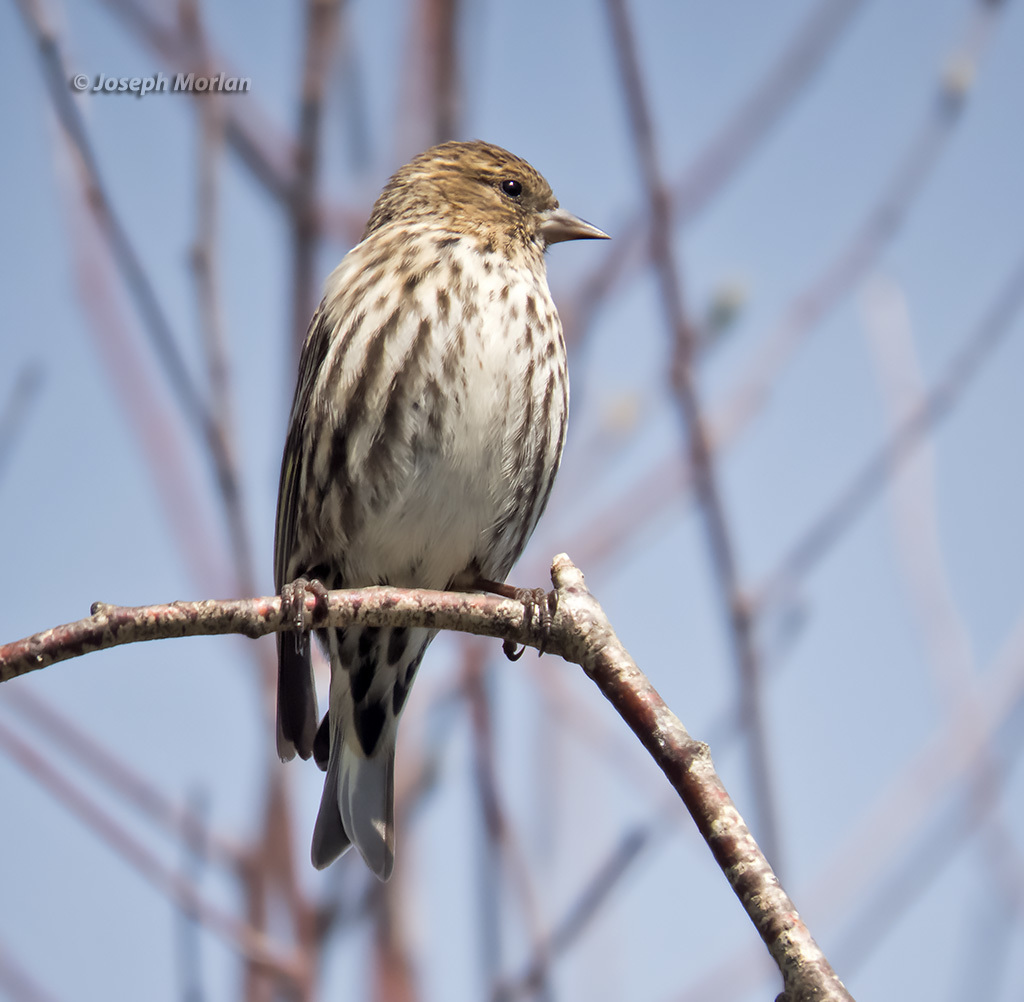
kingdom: Animalia
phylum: Chordata
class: Aves
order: Passeriformes
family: Fringillidae
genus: Spinus
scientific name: Spinus pinus
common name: Pine siskin
